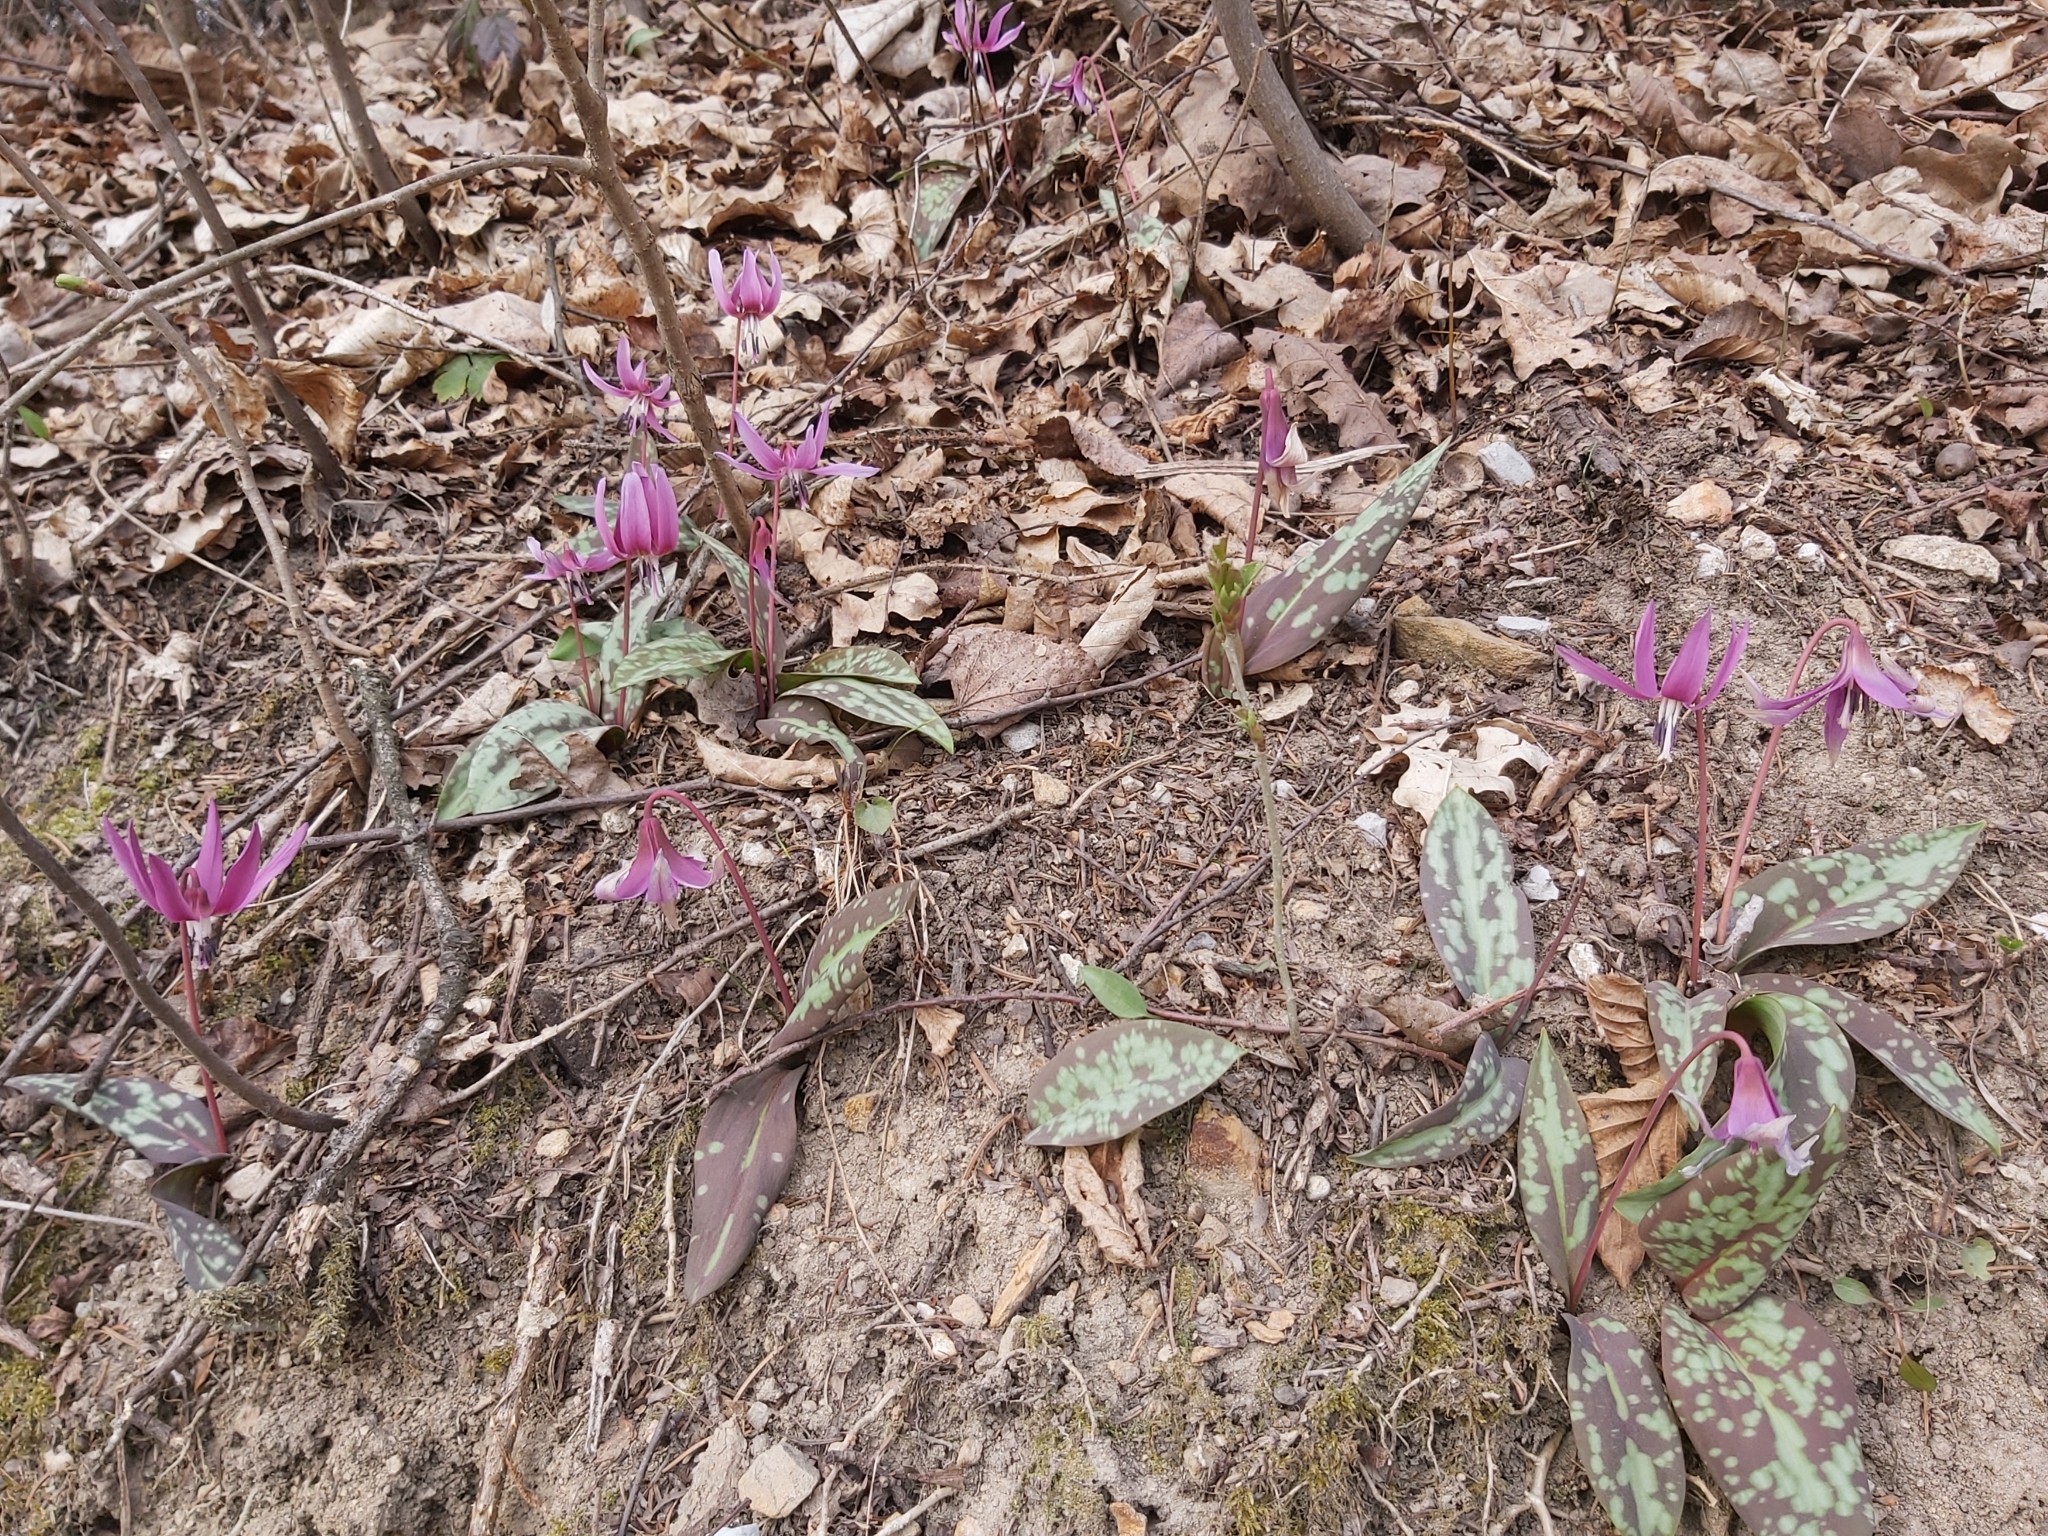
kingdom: Plantae
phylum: Tracheophyta
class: Liliopsida
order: Liliales
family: Liliaceae
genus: Erythronium
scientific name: Erythronium dens-canis
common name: Dog's-tooth-violet
